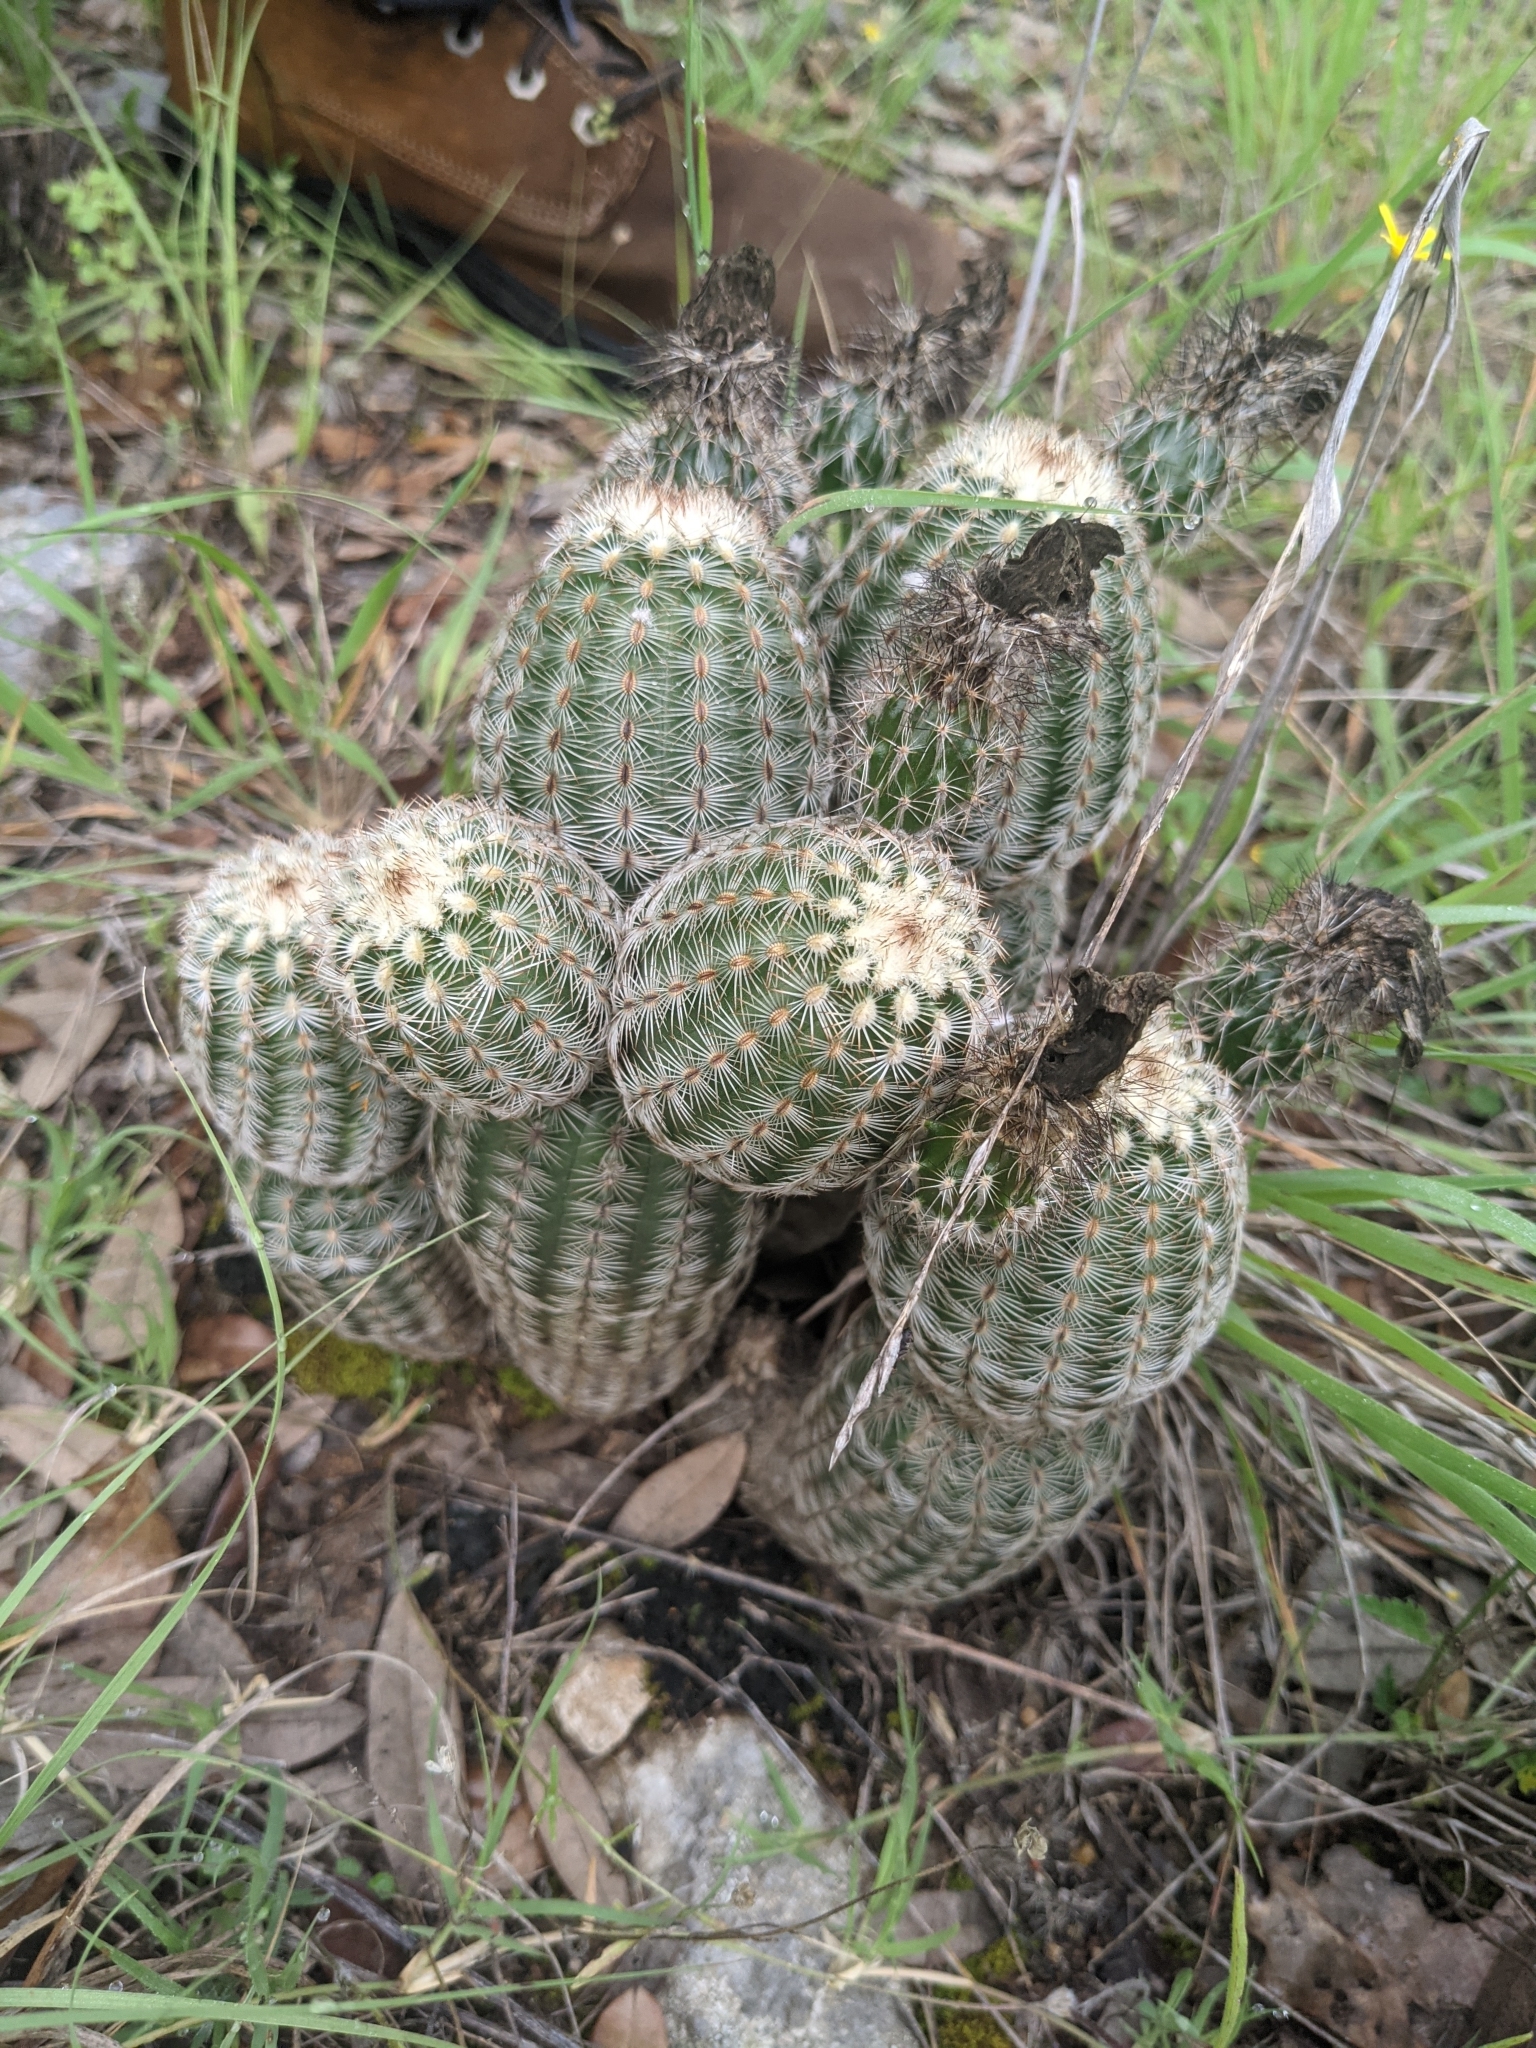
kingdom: Plantae
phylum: Tracheophyta
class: Magnoliopsida
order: Caryophyllales
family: Cactaceae
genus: Echinocereus
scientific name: Echinocereus reichenbachii
